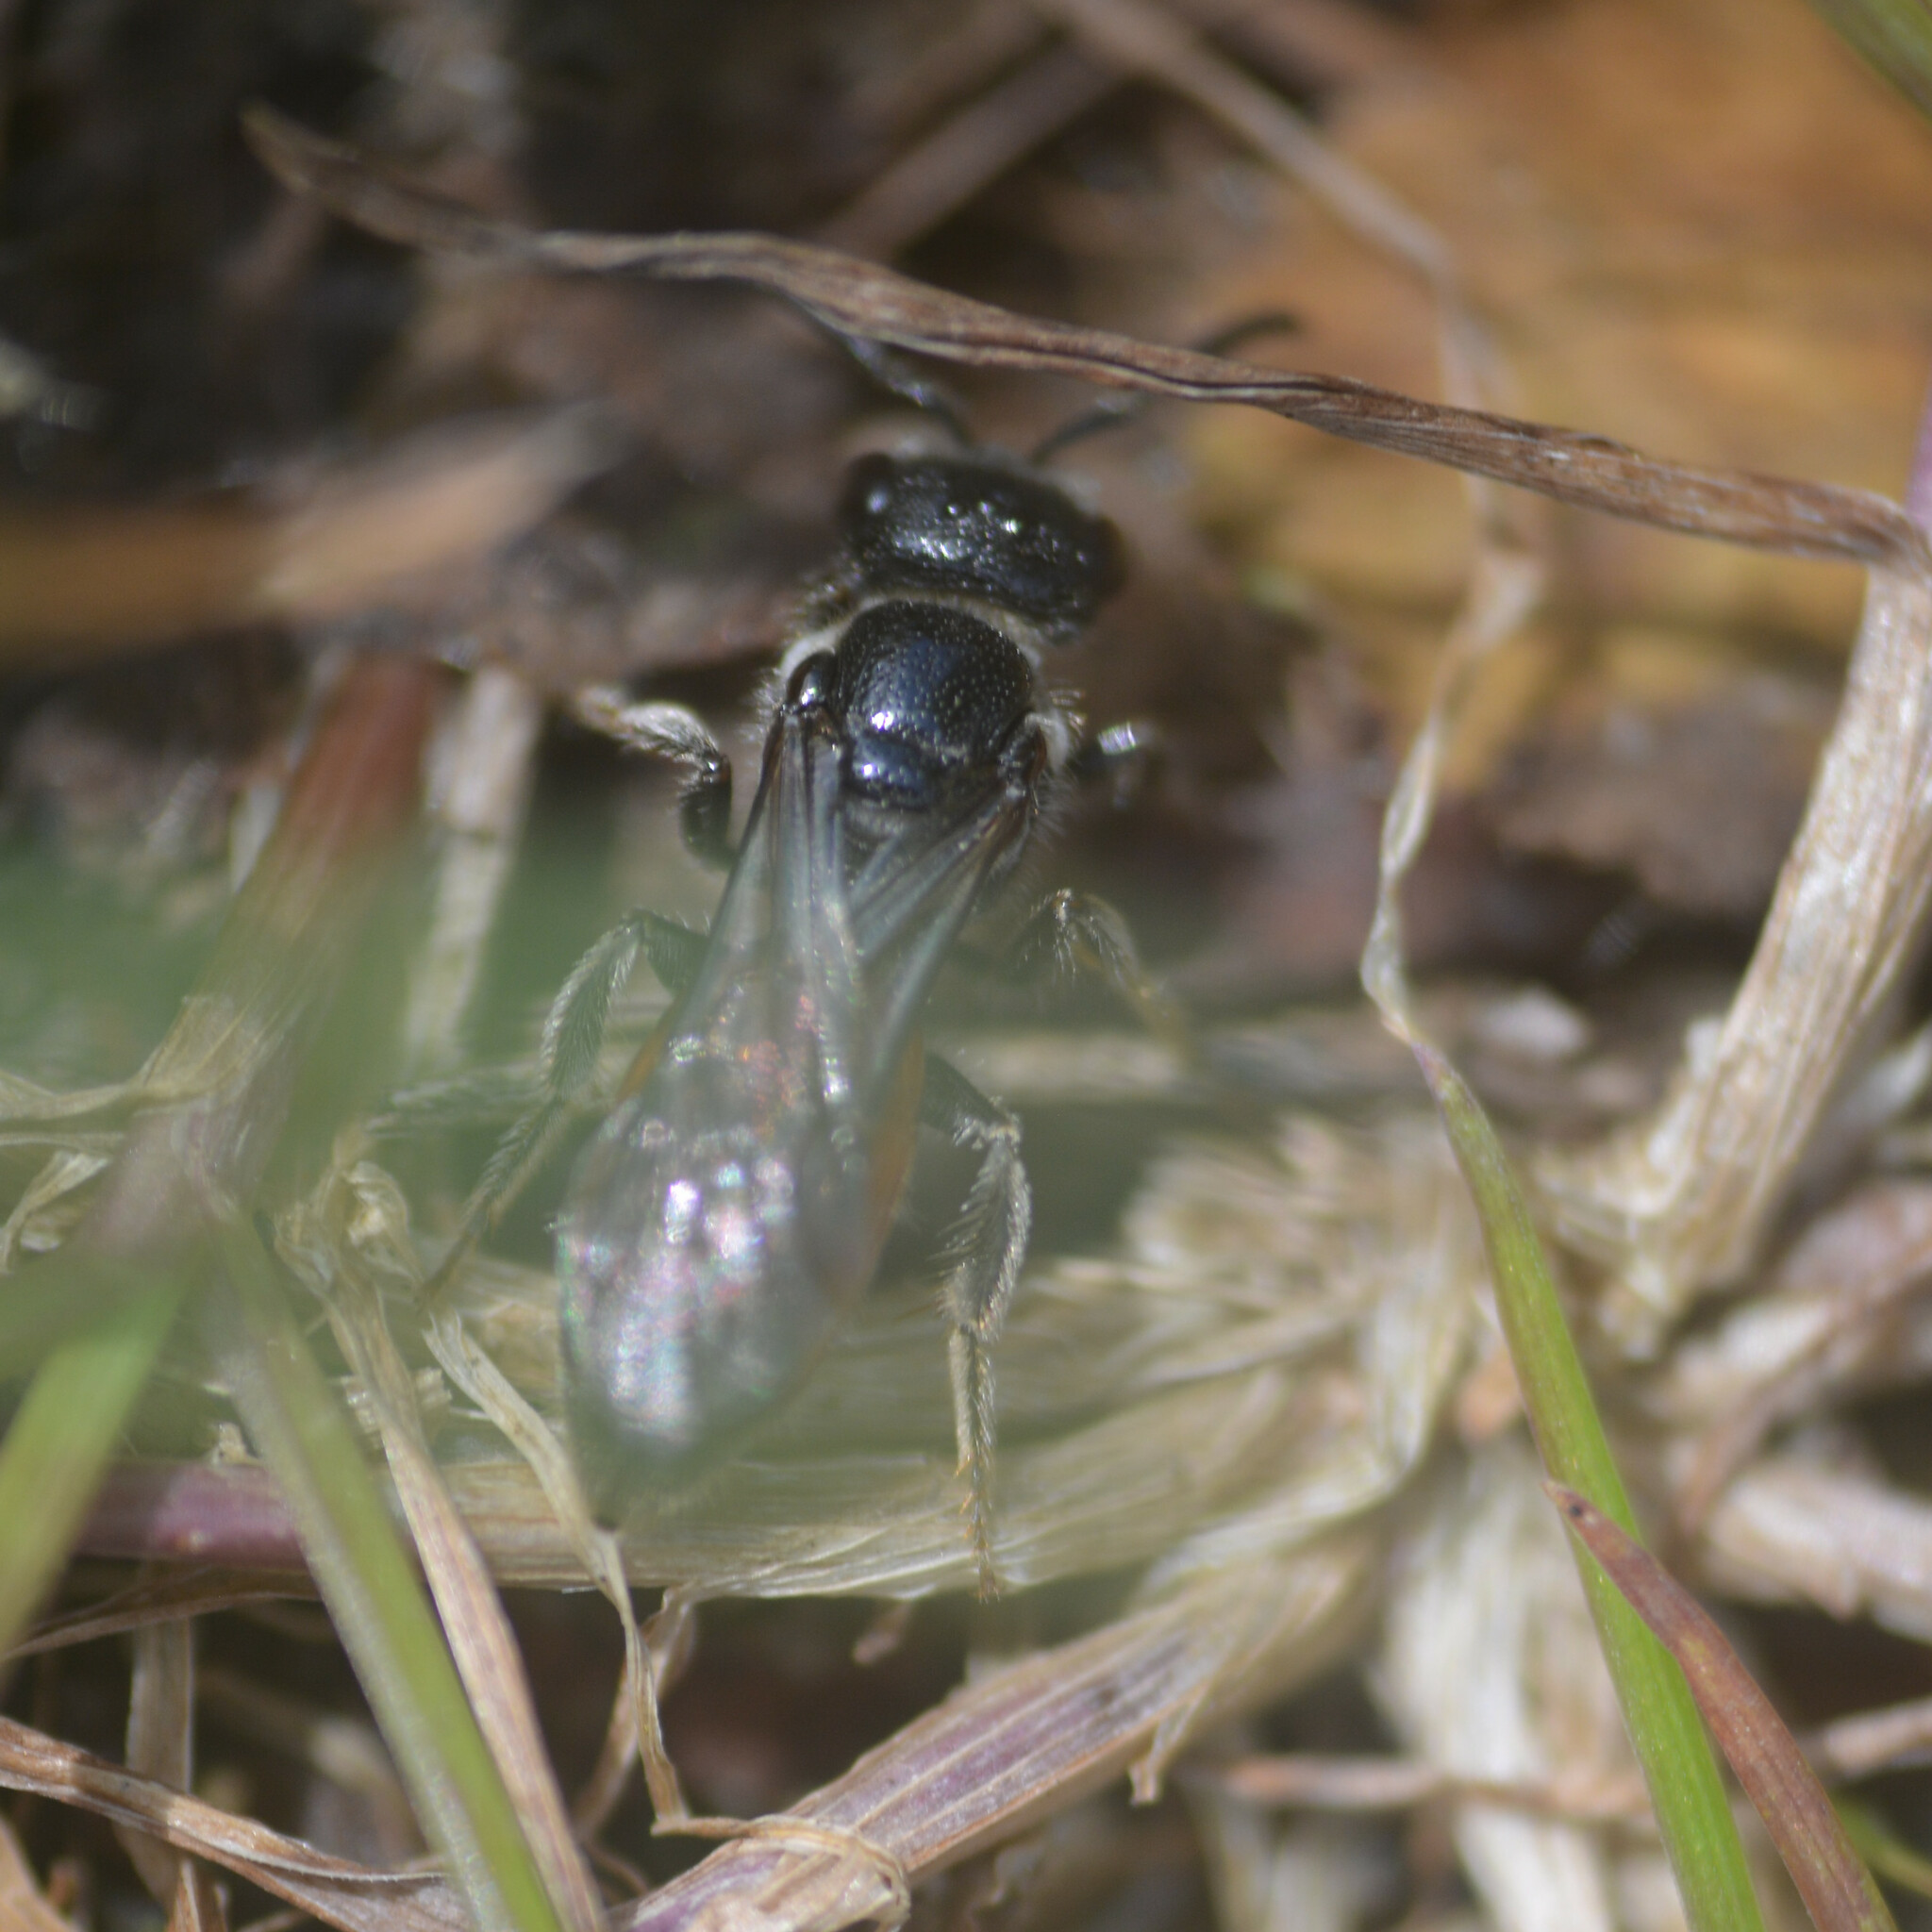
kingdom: Animalia
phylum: Arthropoda
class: Insecta
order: Hymenoptera
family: Halictidae
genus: Sphecodes
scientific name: Sphecodes monilicornis
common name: Box-headed blood bee
